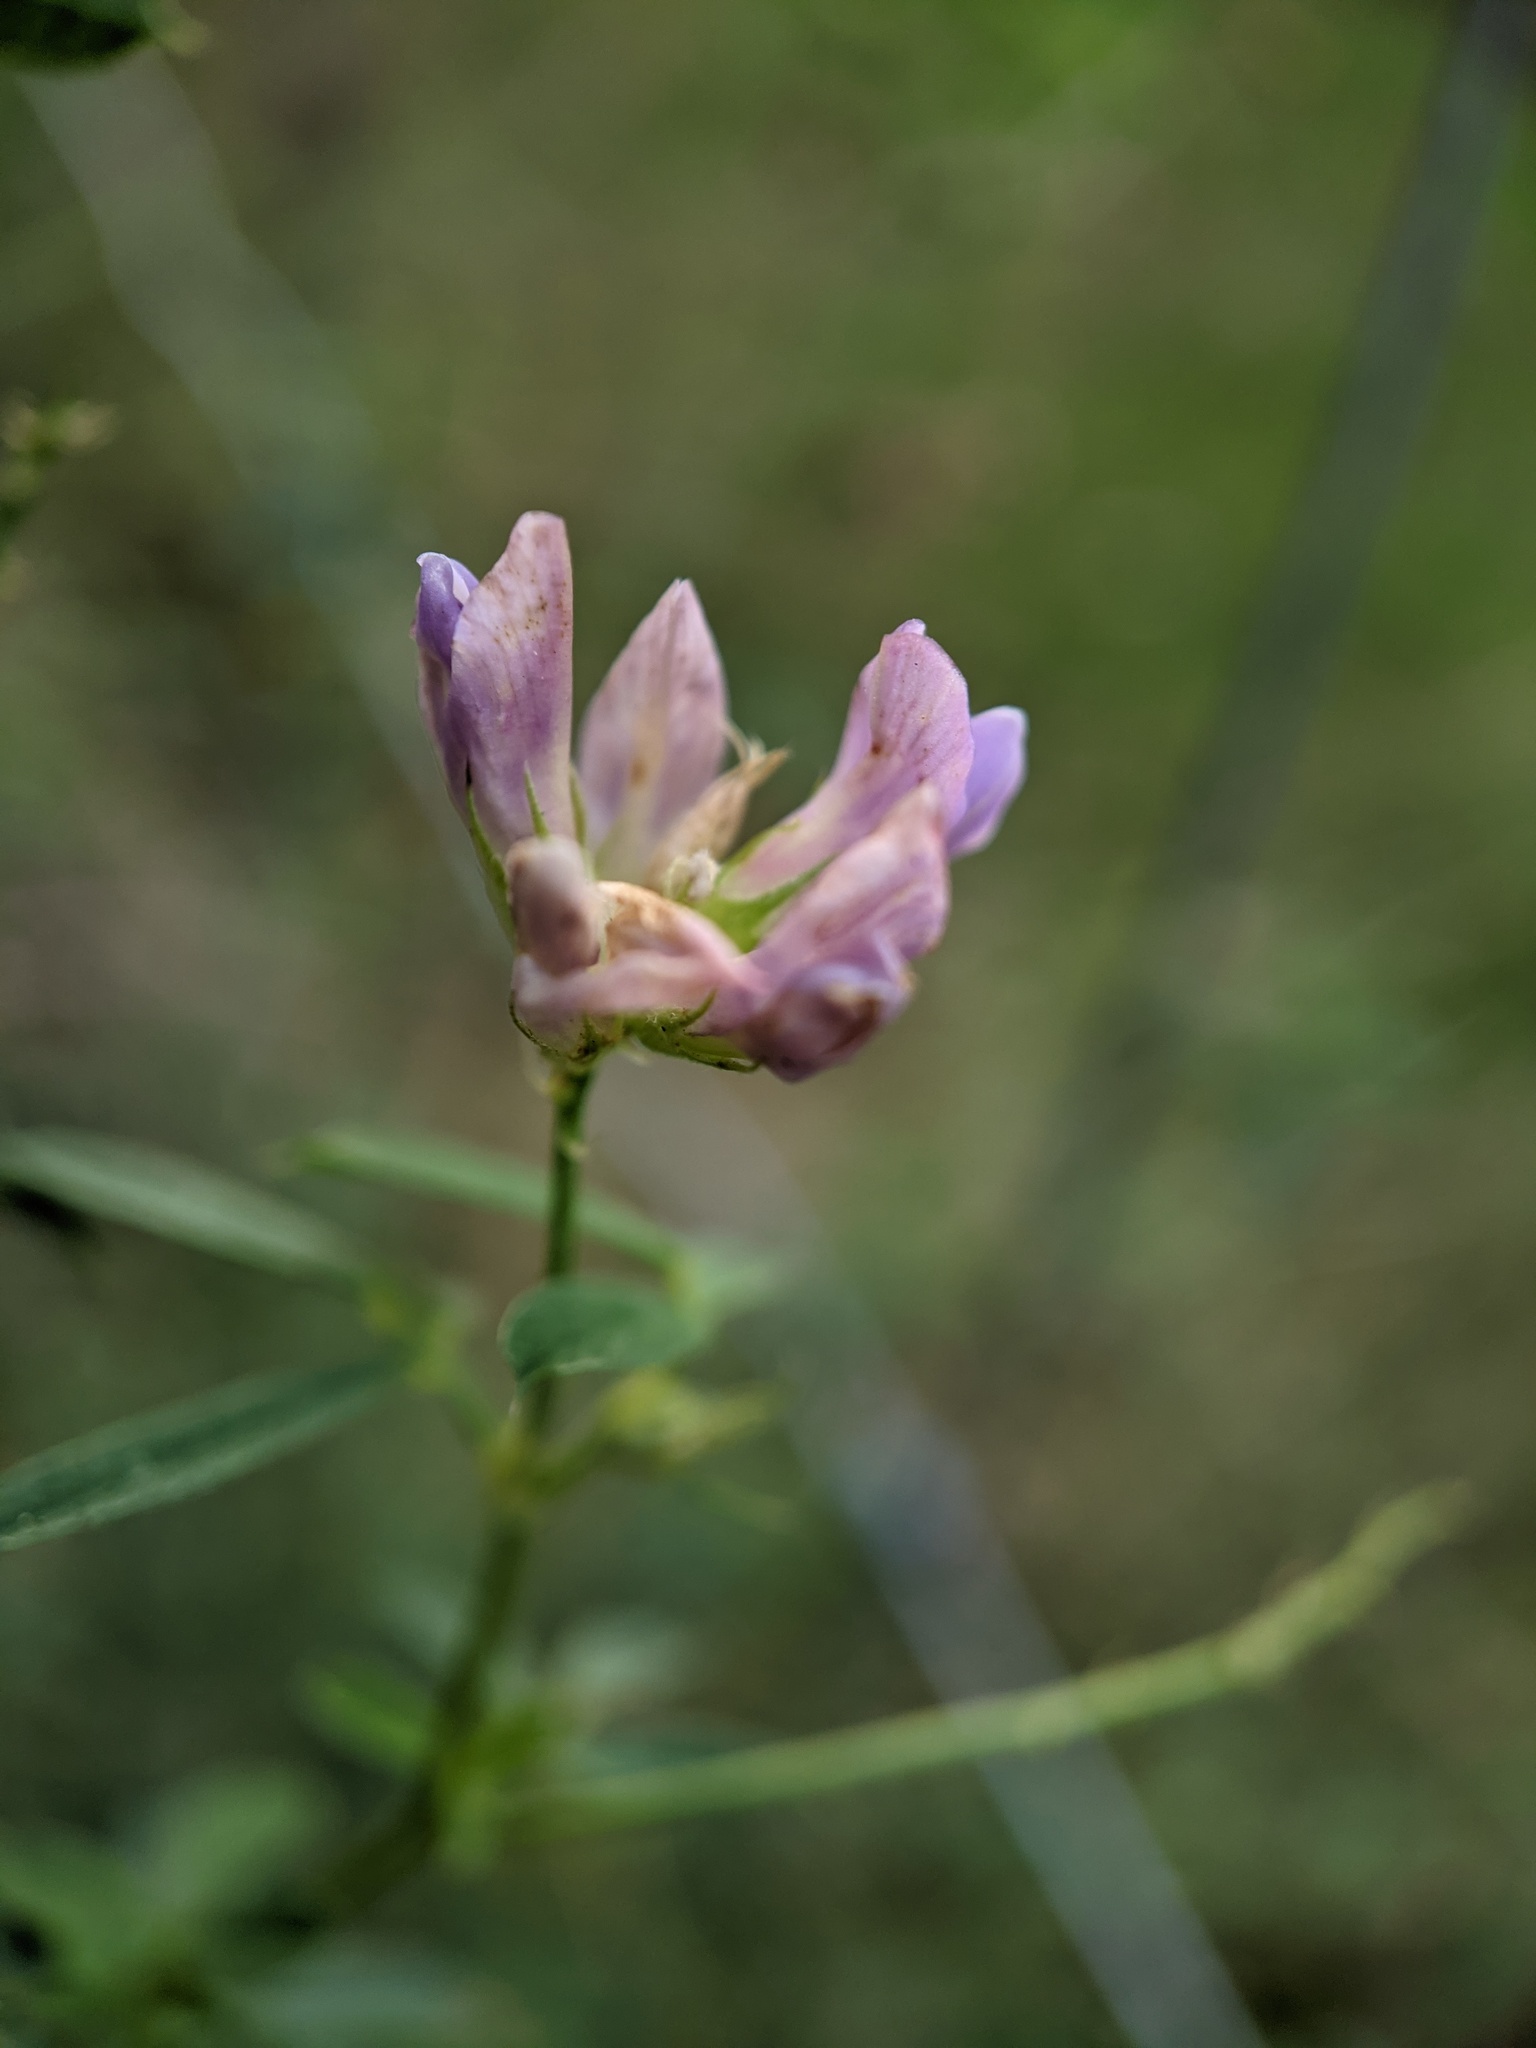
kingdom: Plantae
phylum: Tracheophyta
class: Magnoliopsida
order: Fabales
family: Fabaceae
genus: Medicago
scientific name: Medicago sativa
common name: Alfalfa
